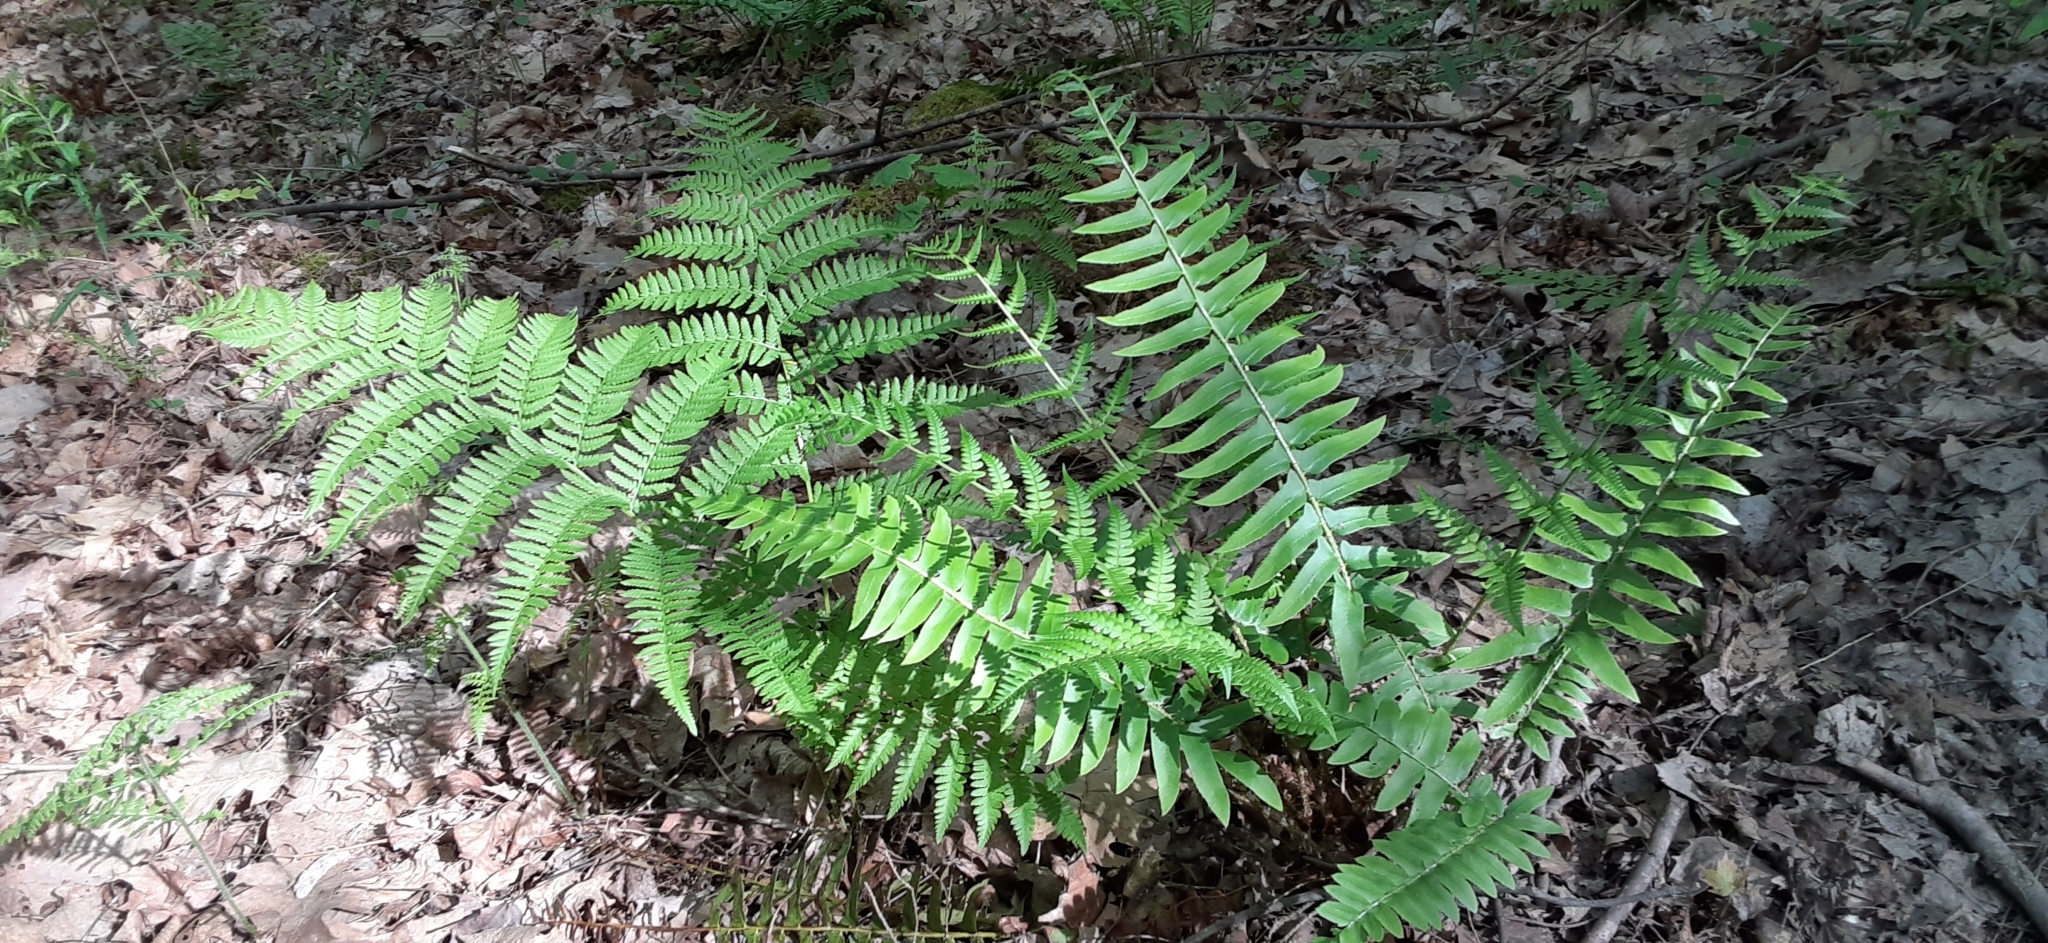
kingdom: Plantae
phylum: Tracheophyta
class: Polypodiopsida
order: Polypodiales
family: Dryopteridaceae
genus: Polystichum
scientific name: Polystichum acrostichoides
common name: Christmas fern
